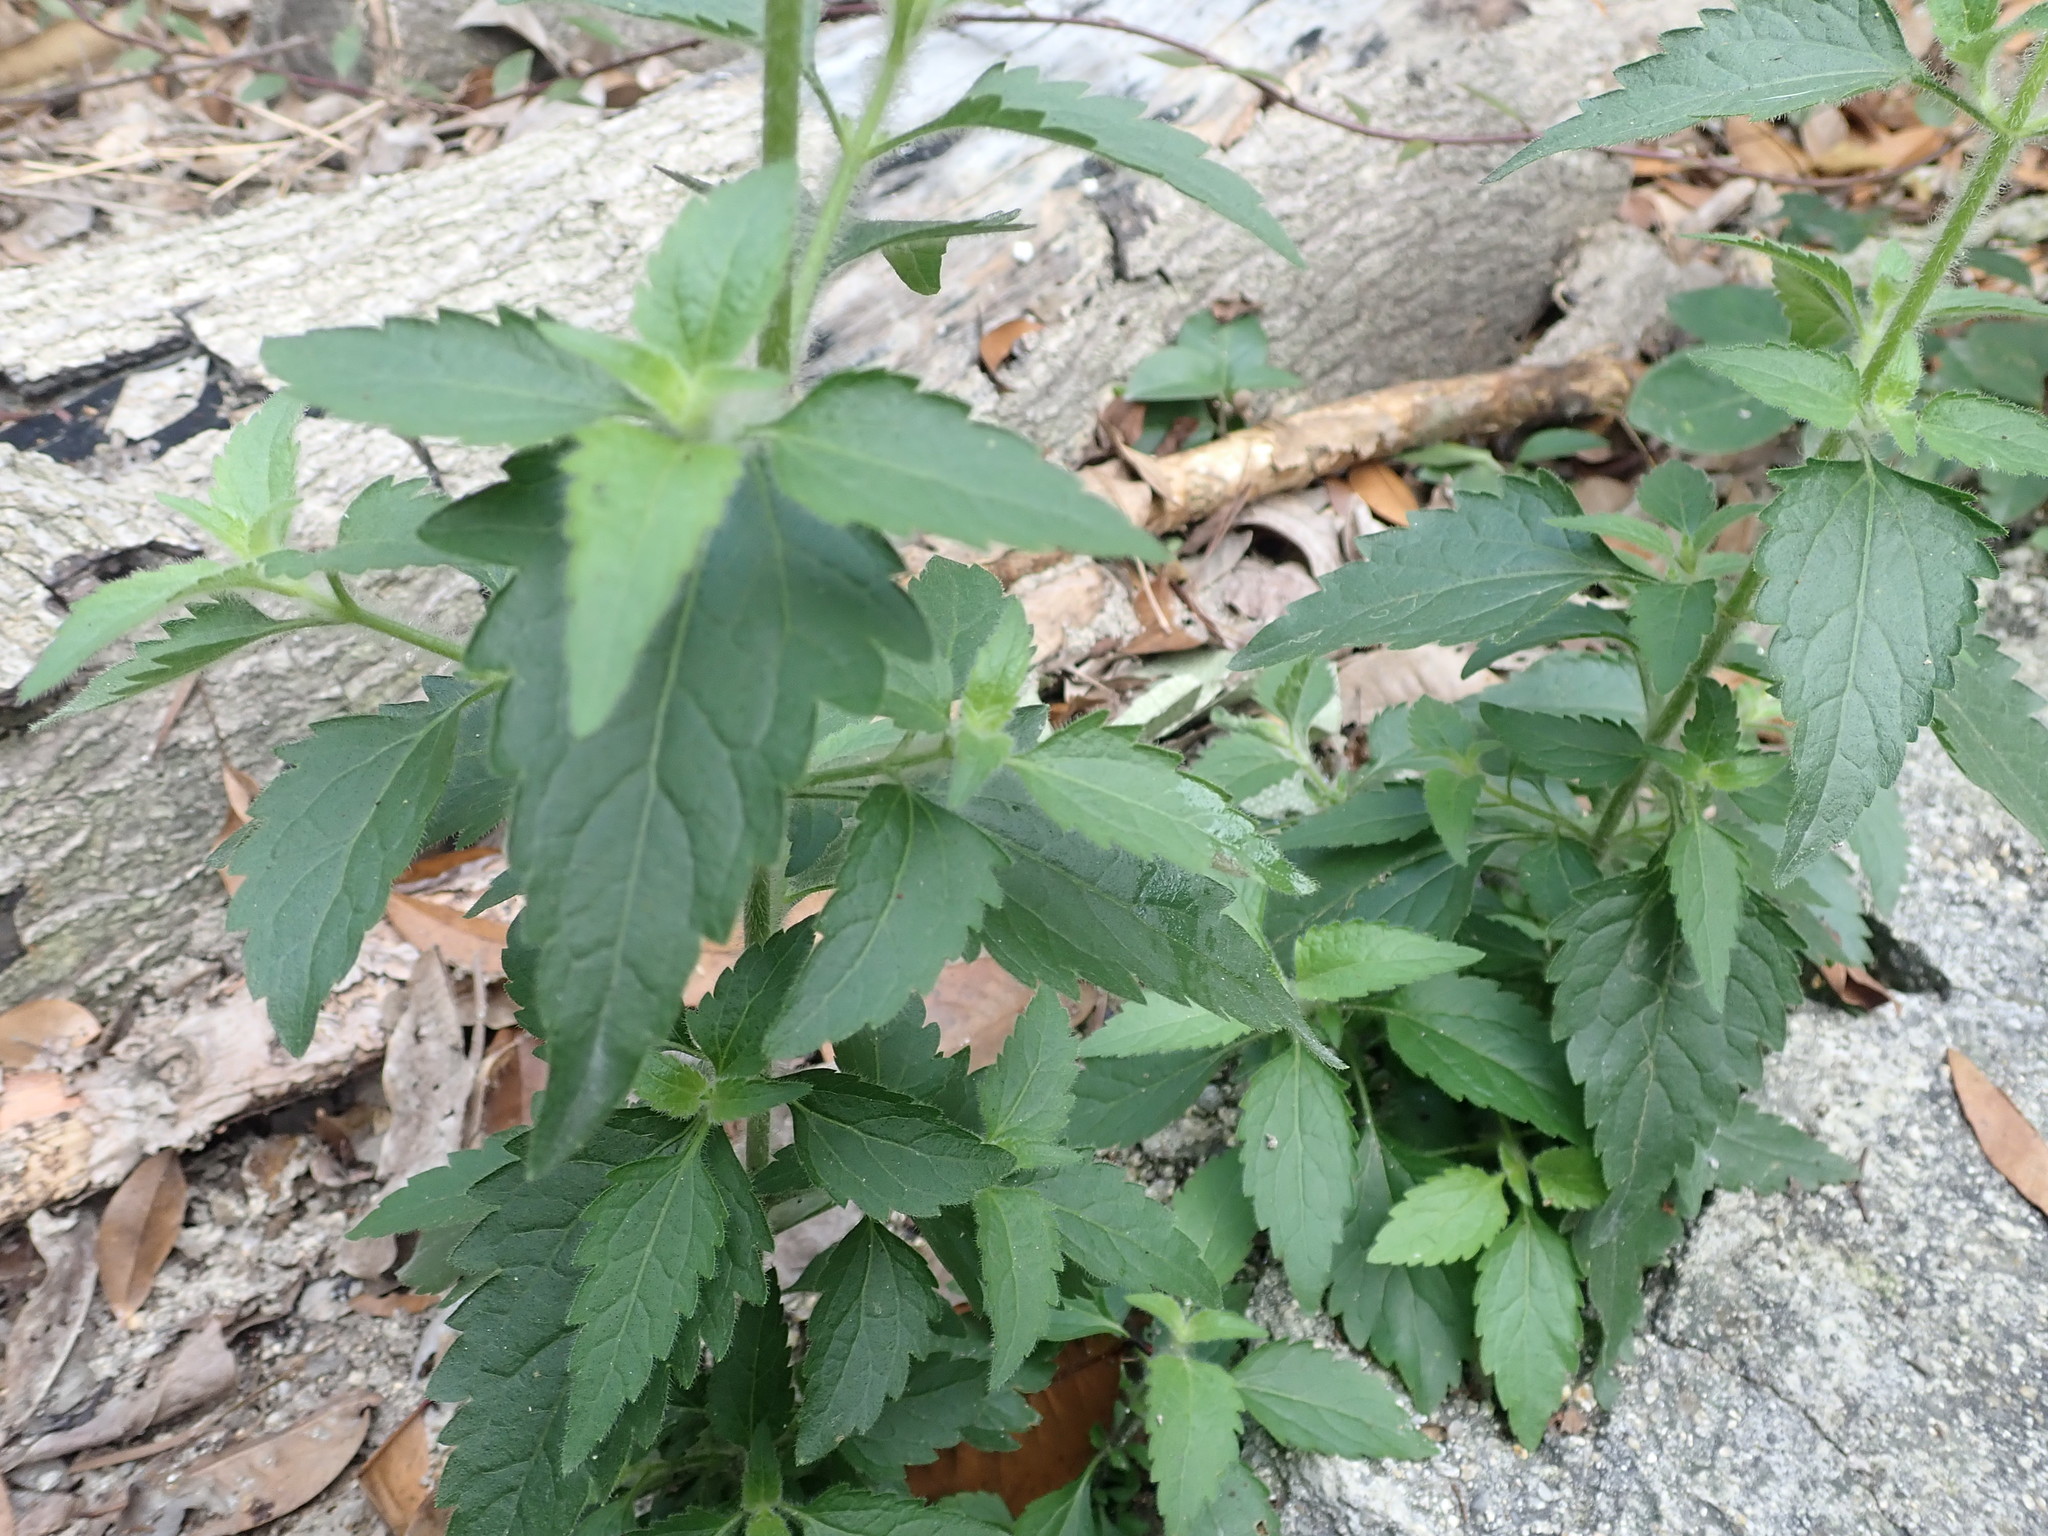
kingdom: Plantae
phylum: Tracheophyta
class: Magnoliopsida
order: Asterales
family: Asteraceae
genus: Praxelis
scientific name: Praxelis clematidea
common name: Praxelis
